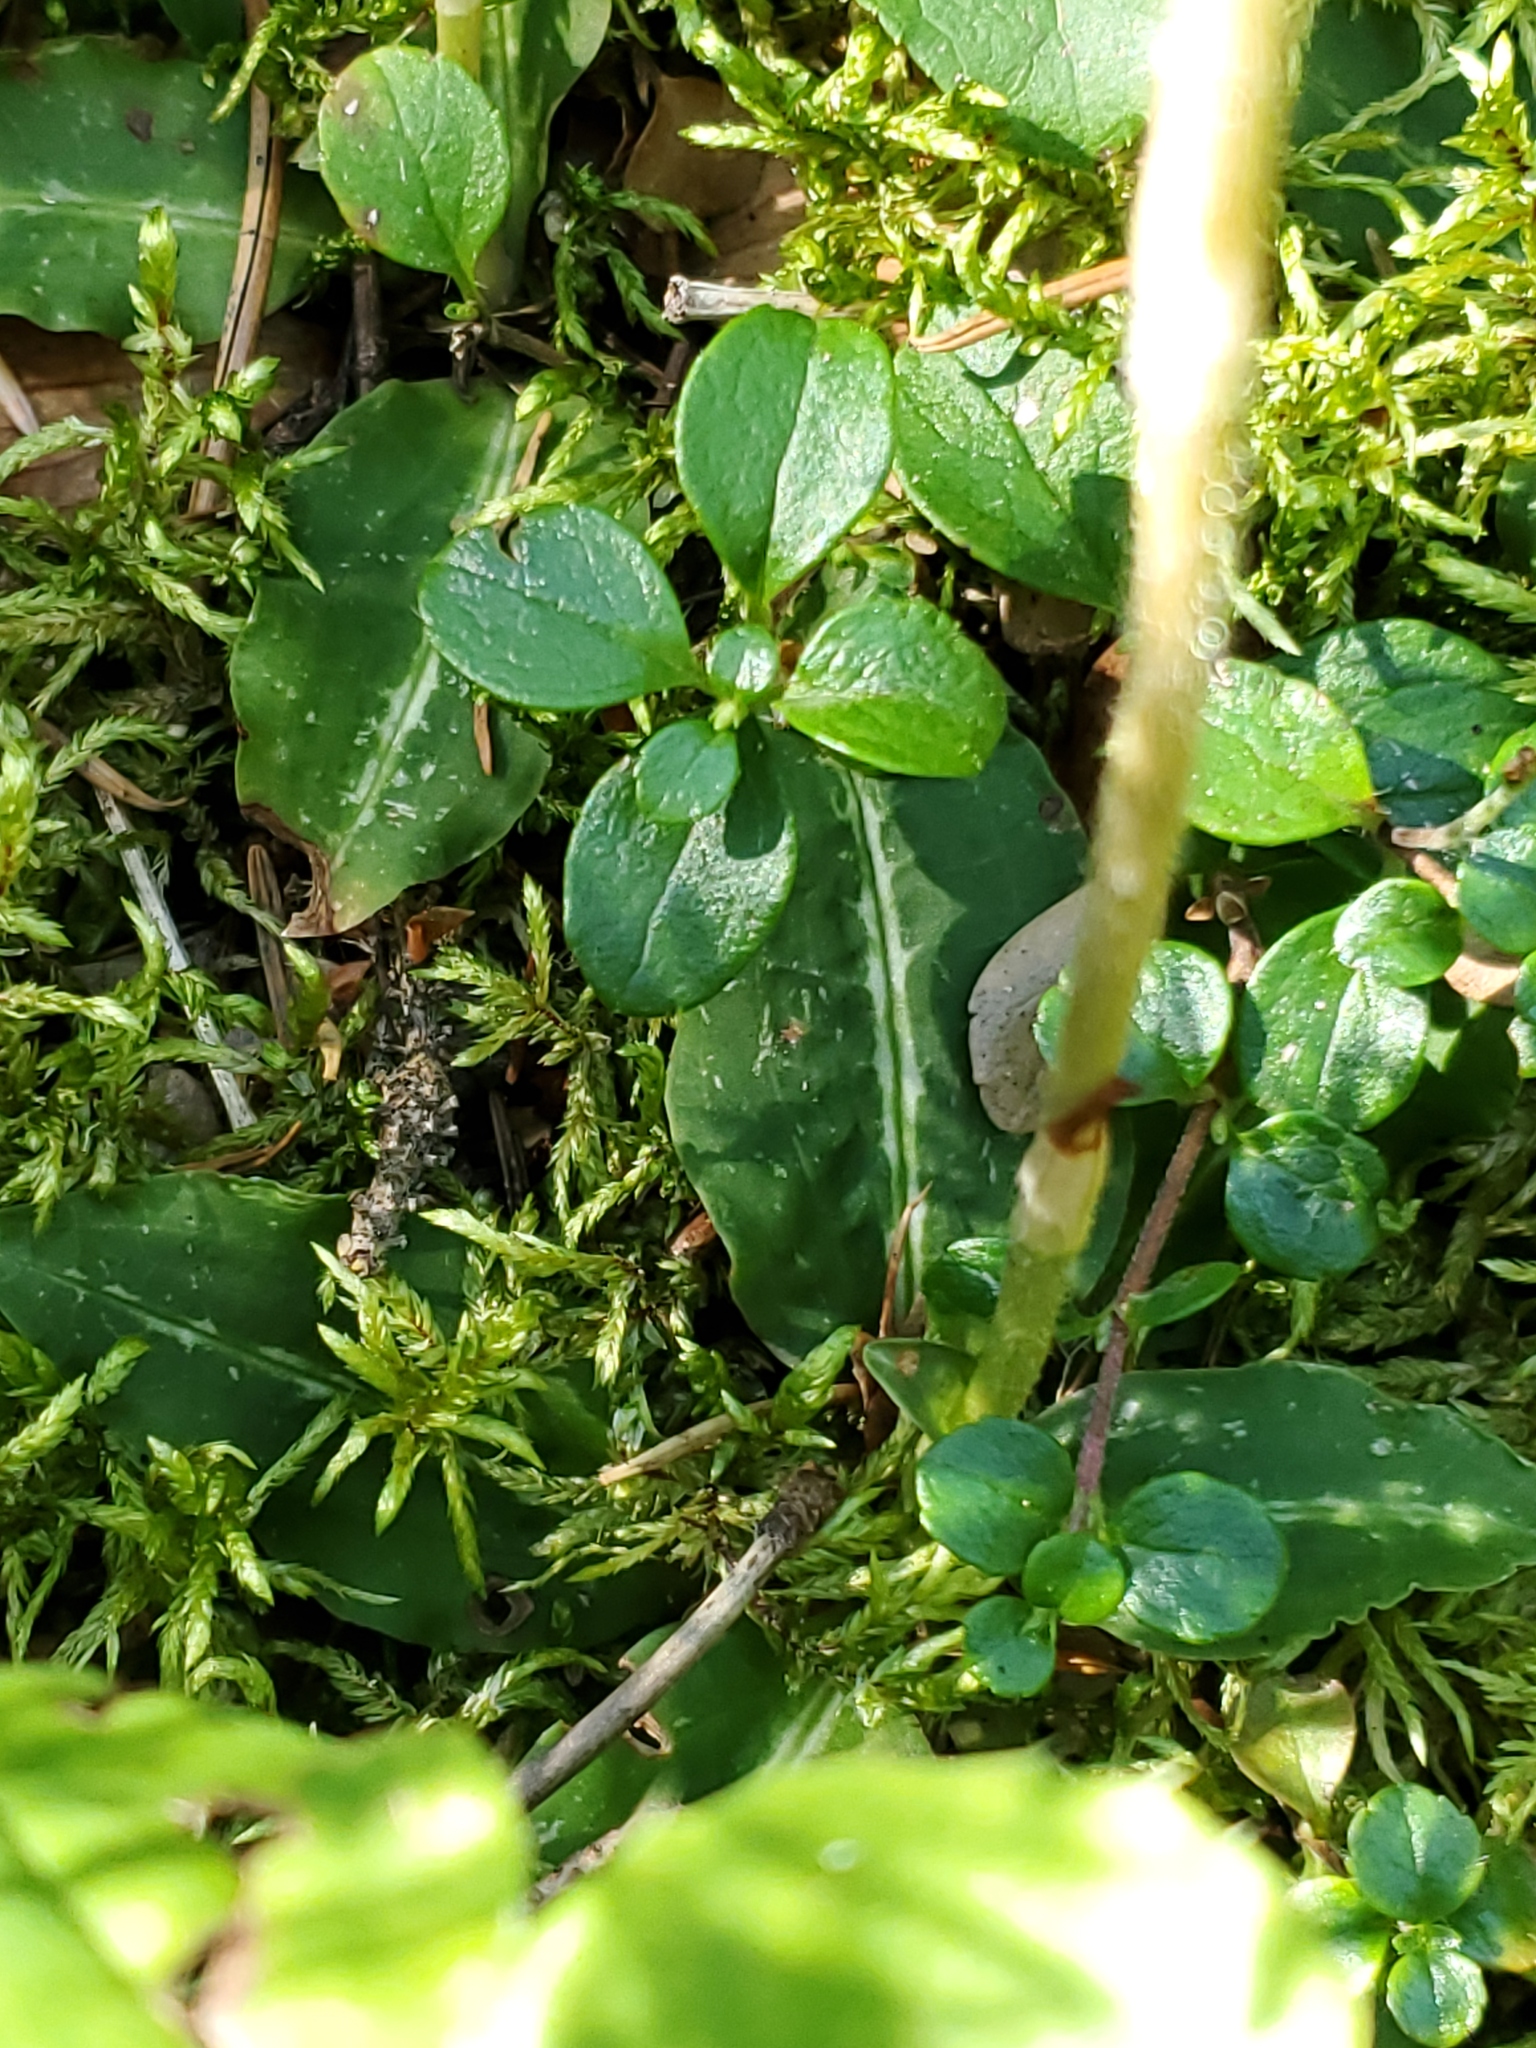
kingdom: Plantae
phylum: Tracheophyta
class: Liliopsida
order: Asparagales
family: Orchidaceae
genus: Goodyera
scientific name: Goodyera oblongifolia
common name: Giant rattlesnake-plantain
